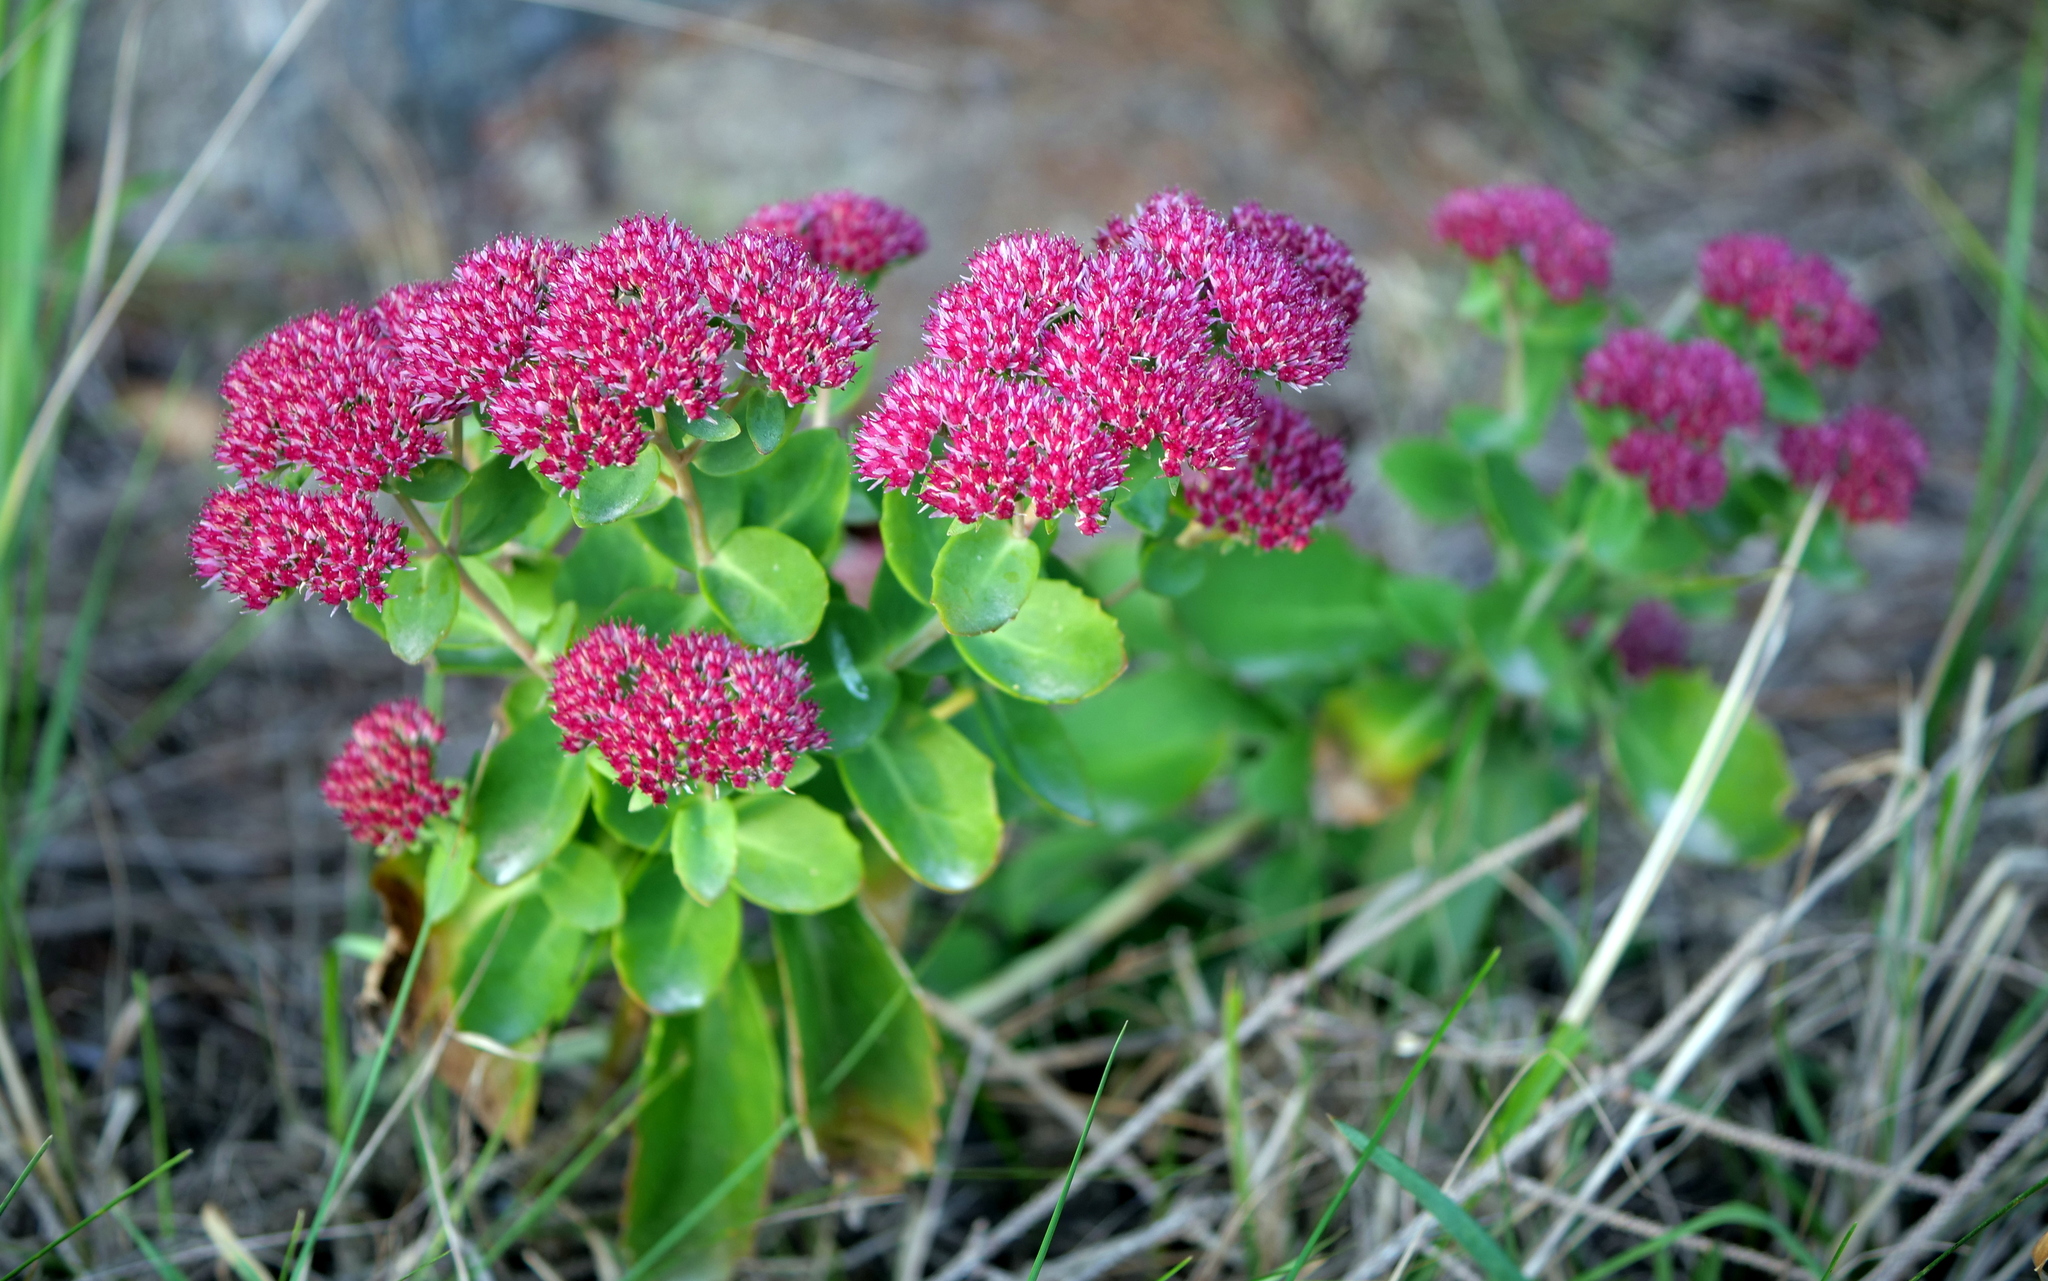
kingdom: Plantae
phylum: Tracheophyta
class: Magnoliopsida
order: Saxifragales
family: Crassulaceae
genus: Hylotelephium
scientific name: Hylotelephium
